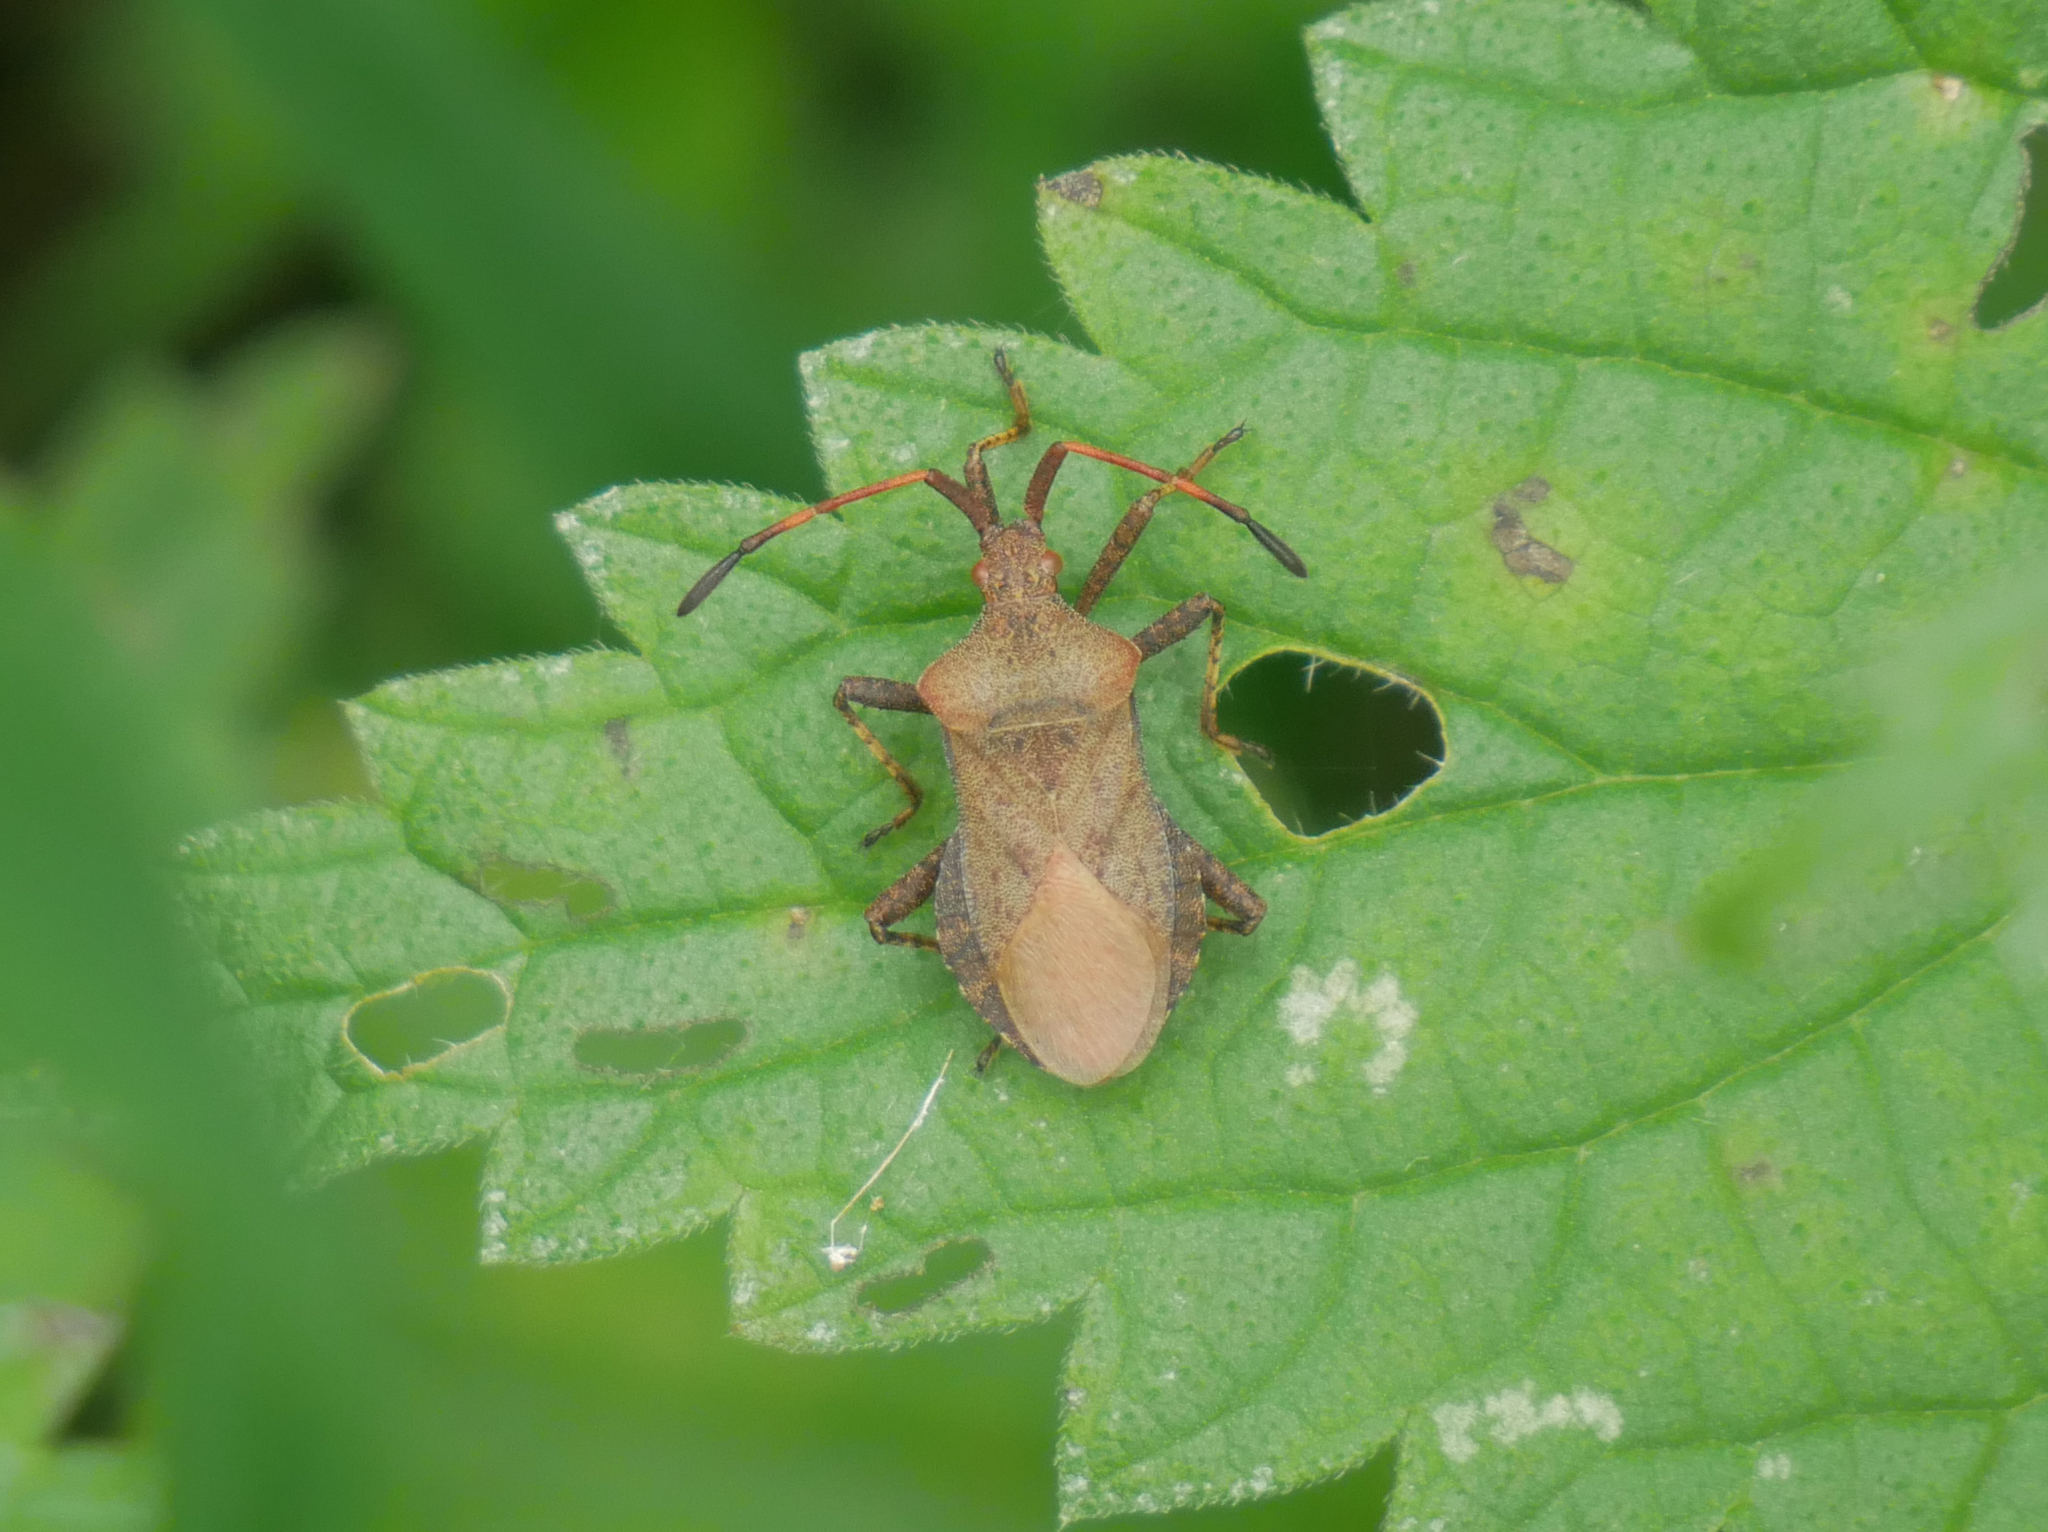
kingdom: Animalia
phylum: Arthropoda
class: Insecta
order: Hemiptera
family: Coreidae
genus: Coreus
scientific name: Coreus marginatus
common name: Dock bug
